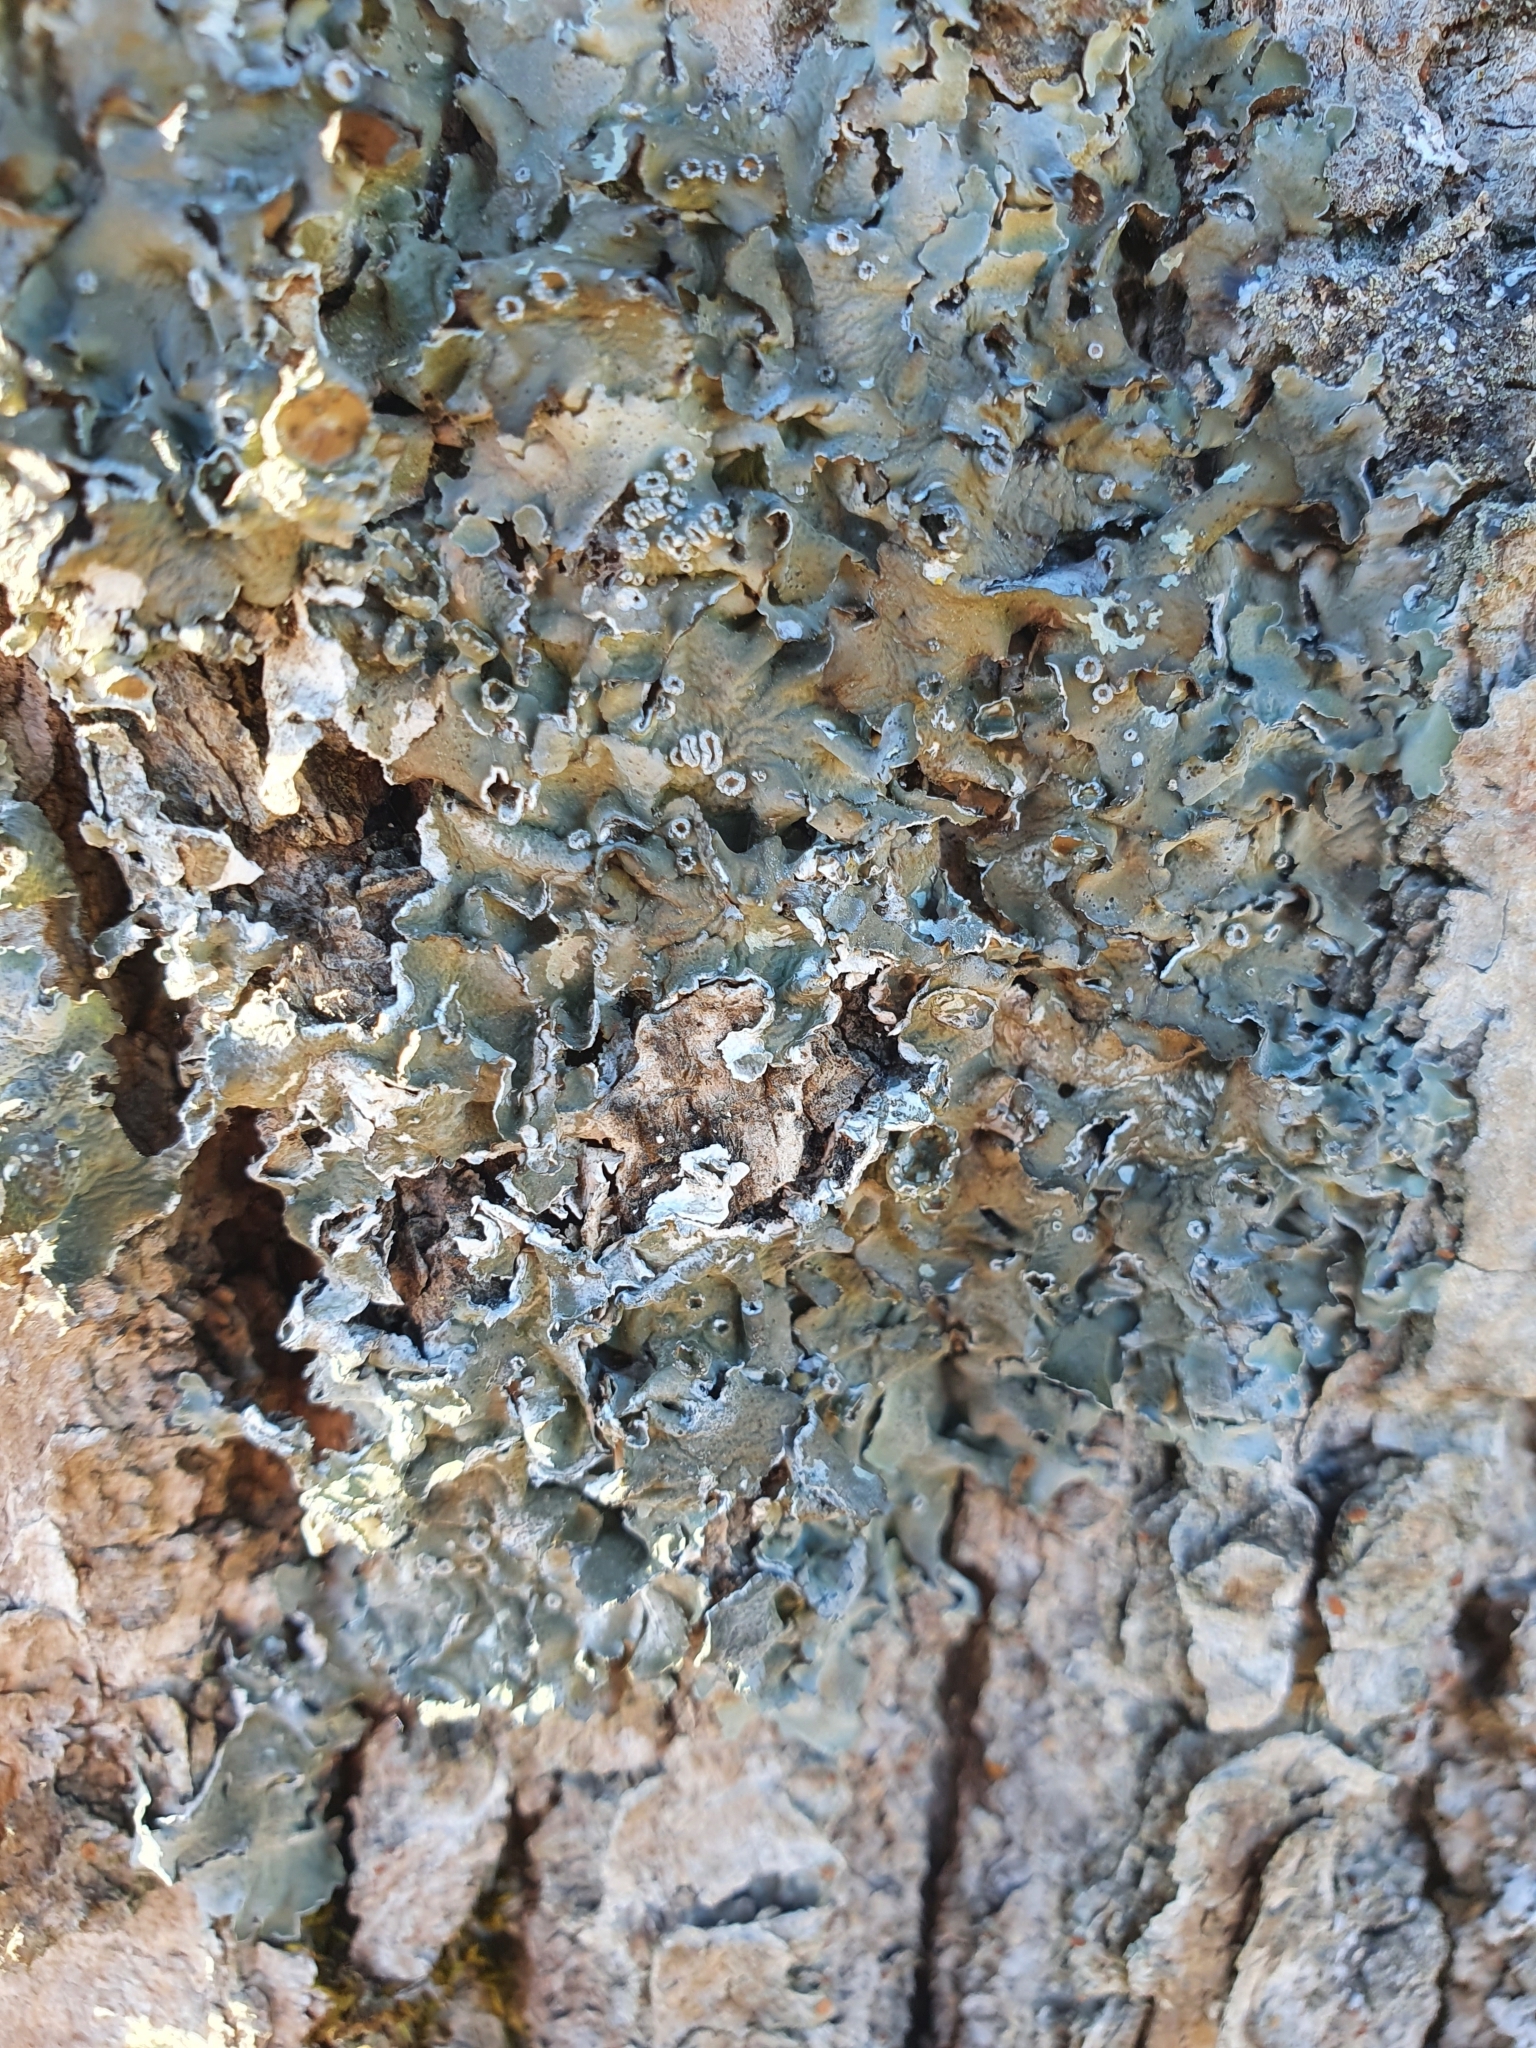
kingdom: Fungi
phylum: Ascomycota
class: Lecanoromycetes
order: Lecanorales
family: Parmeliaceae
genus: Pleurosticta
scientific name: Pleurosticta acetabulum
